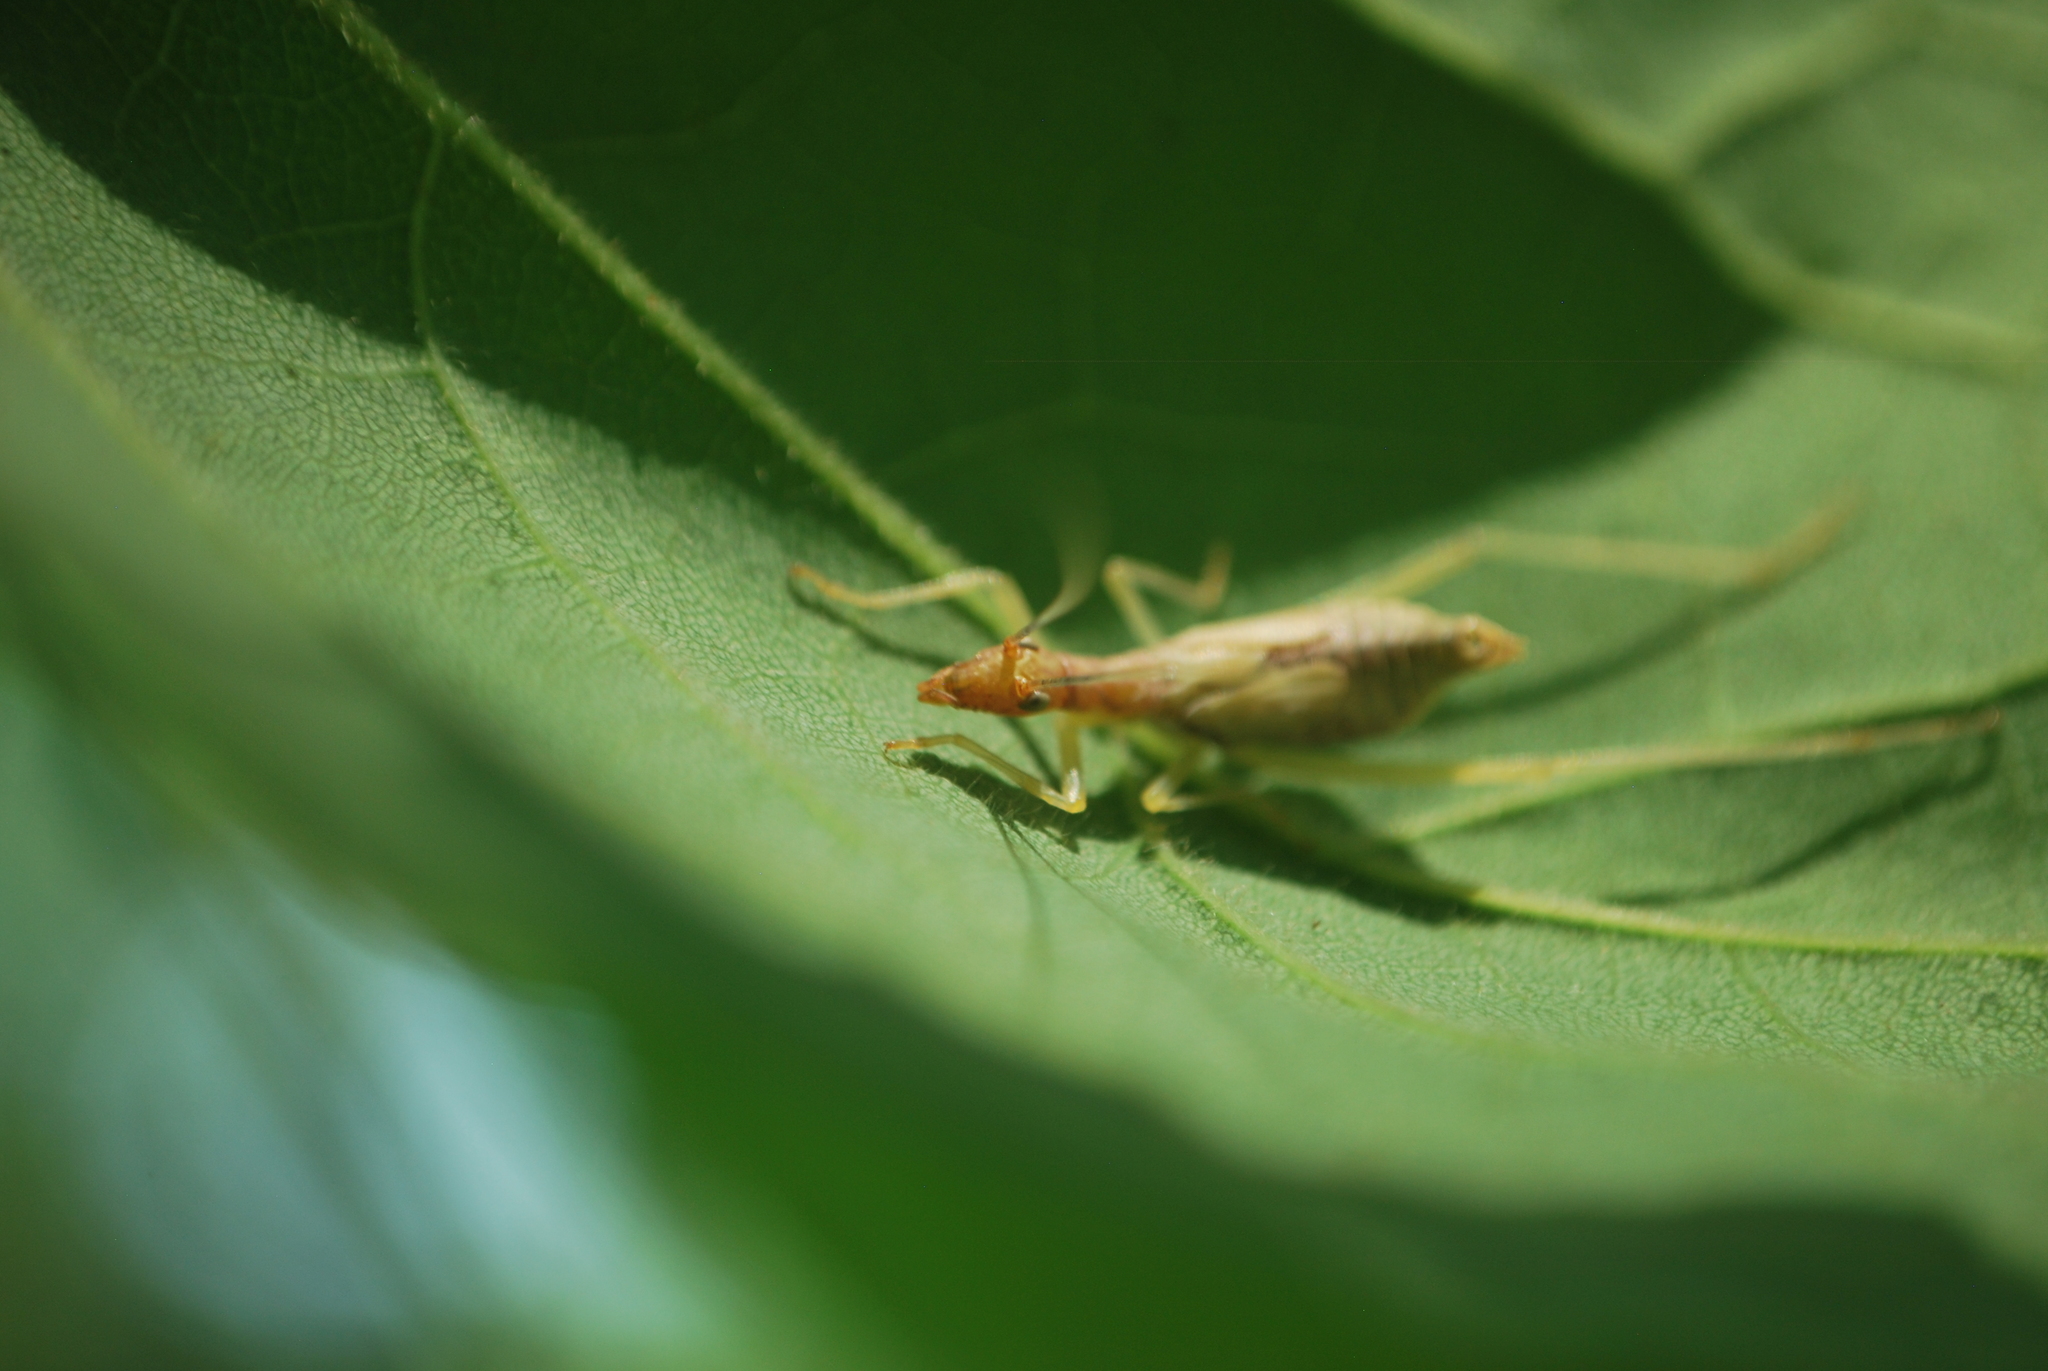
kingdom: Animalia
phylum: Arthropoda
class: Insecta
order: Orthoptera
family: Gryllidae
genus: Neoxabea
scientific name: Neoxabea bipunctata
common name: Two-spotted tree cricket
